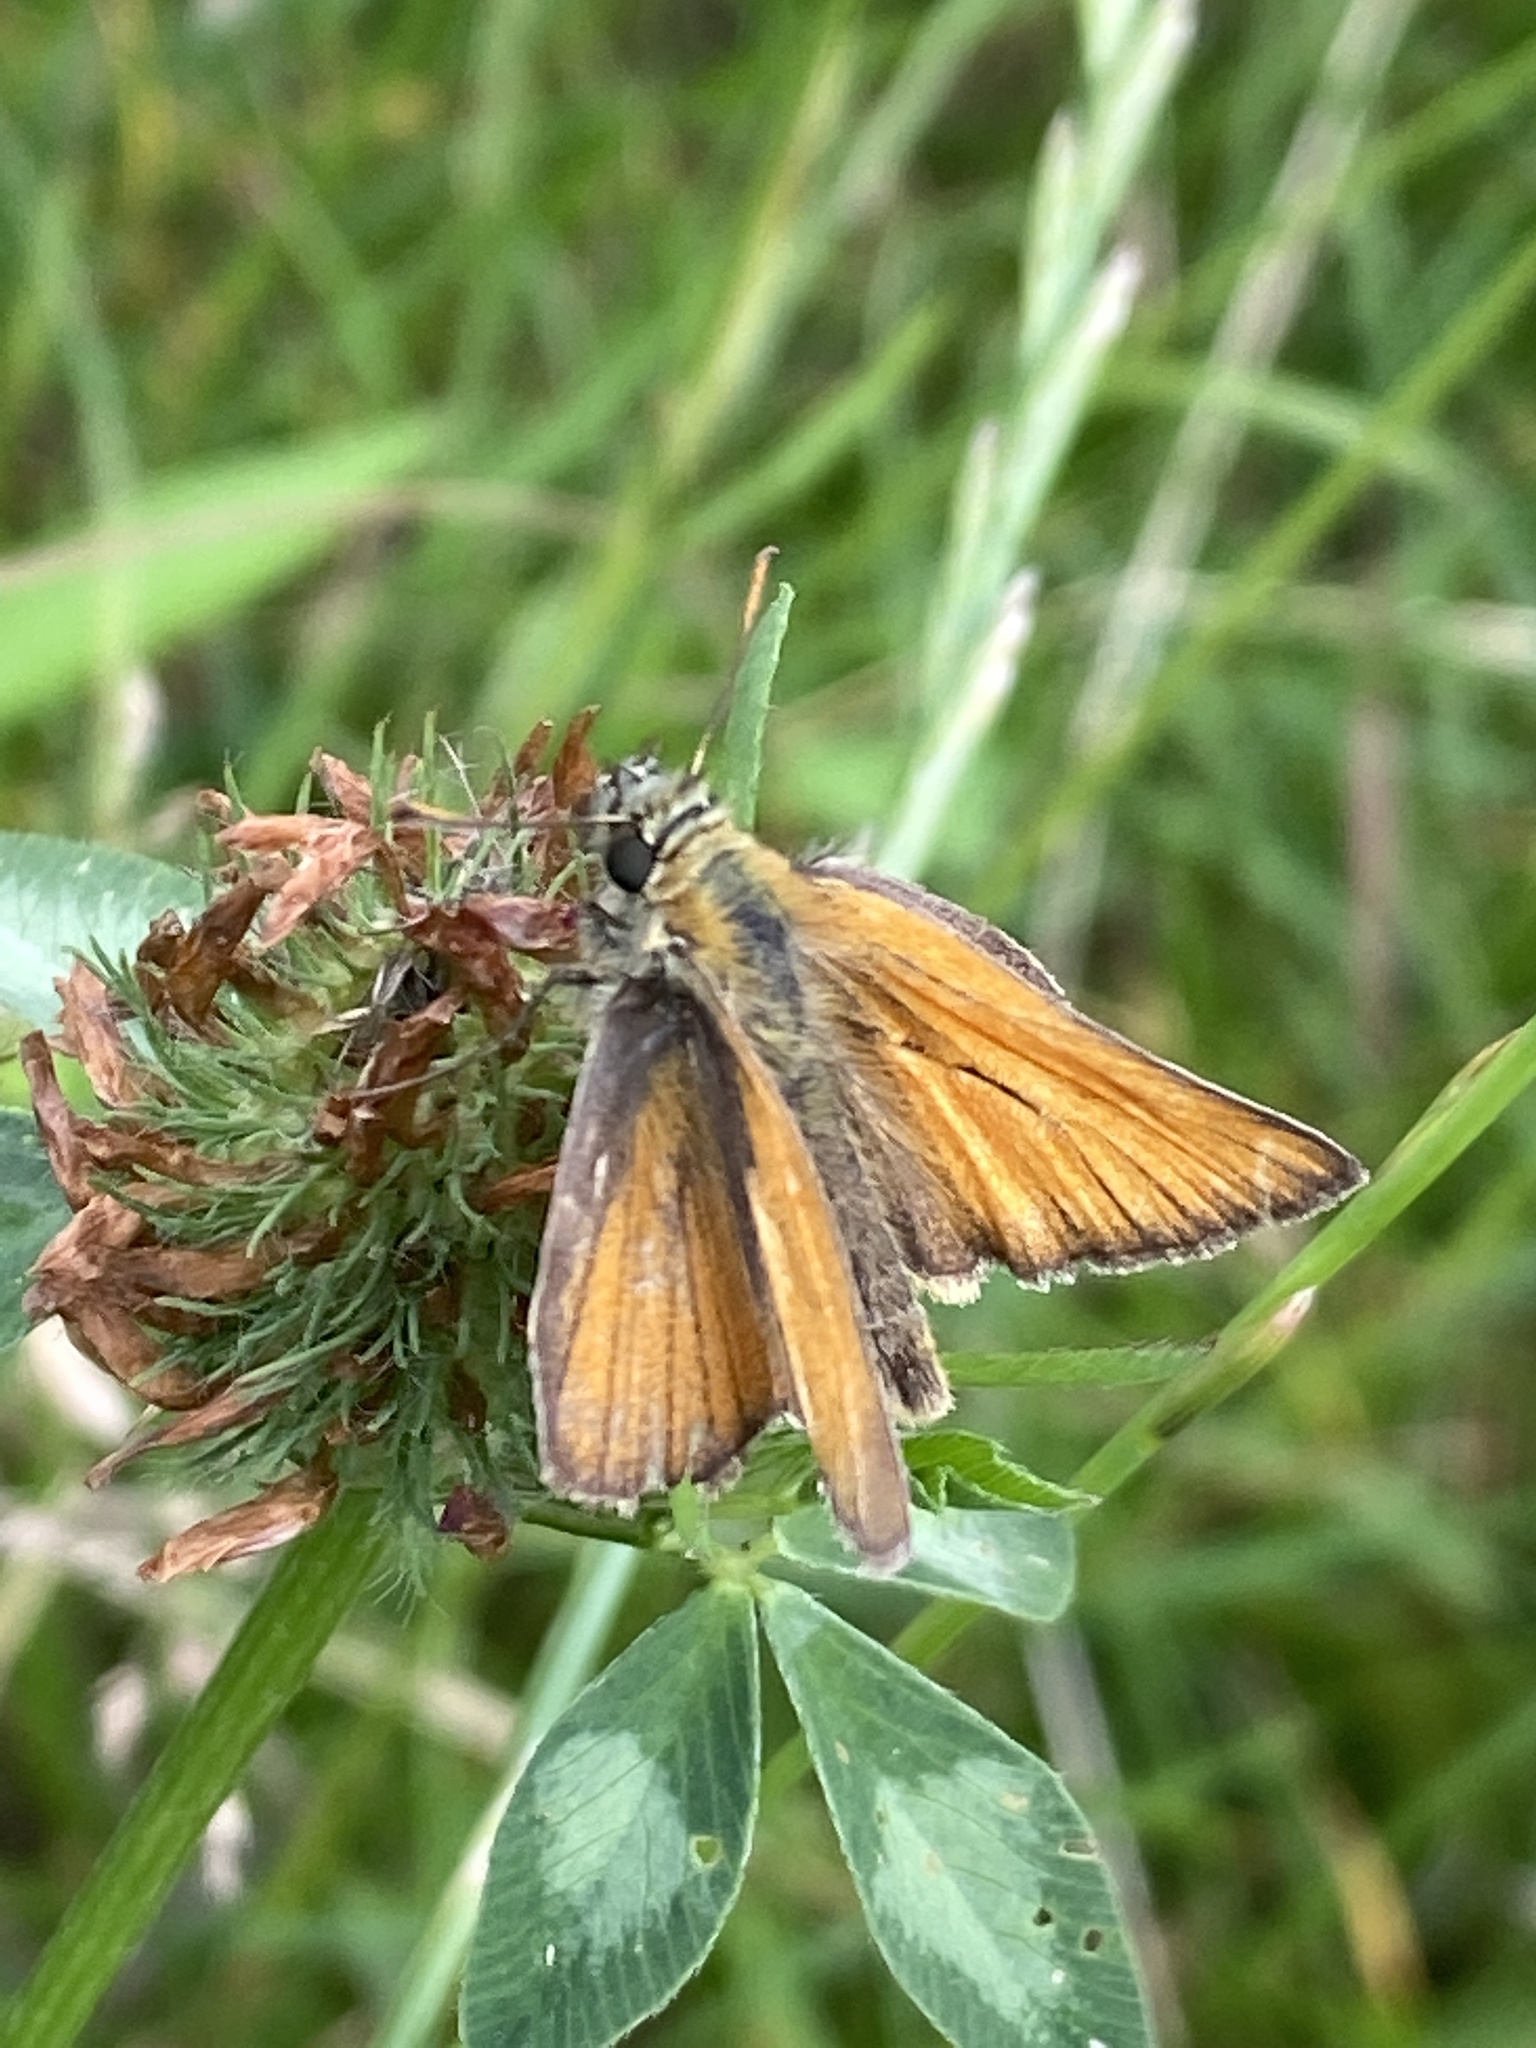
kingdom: Animalia
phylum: Arthropoda
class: Insecta
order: Lepidoptera
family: Hesperiidae
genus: Thymelicus
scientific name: Thymelicus sylvestris
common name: Small skipper
